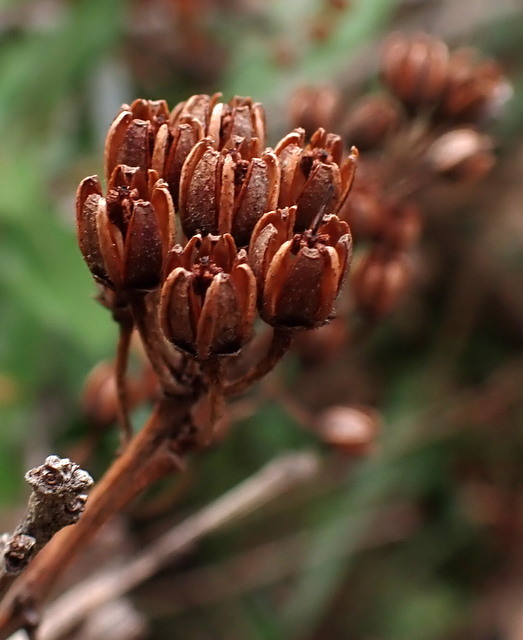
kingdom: Plantae
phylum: Tracheophyta
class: Magnoliopsida
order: Ericales
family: Ericaceae
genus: Lyonia
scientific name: Lyonia ferruginea
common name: Rusty lyonia
